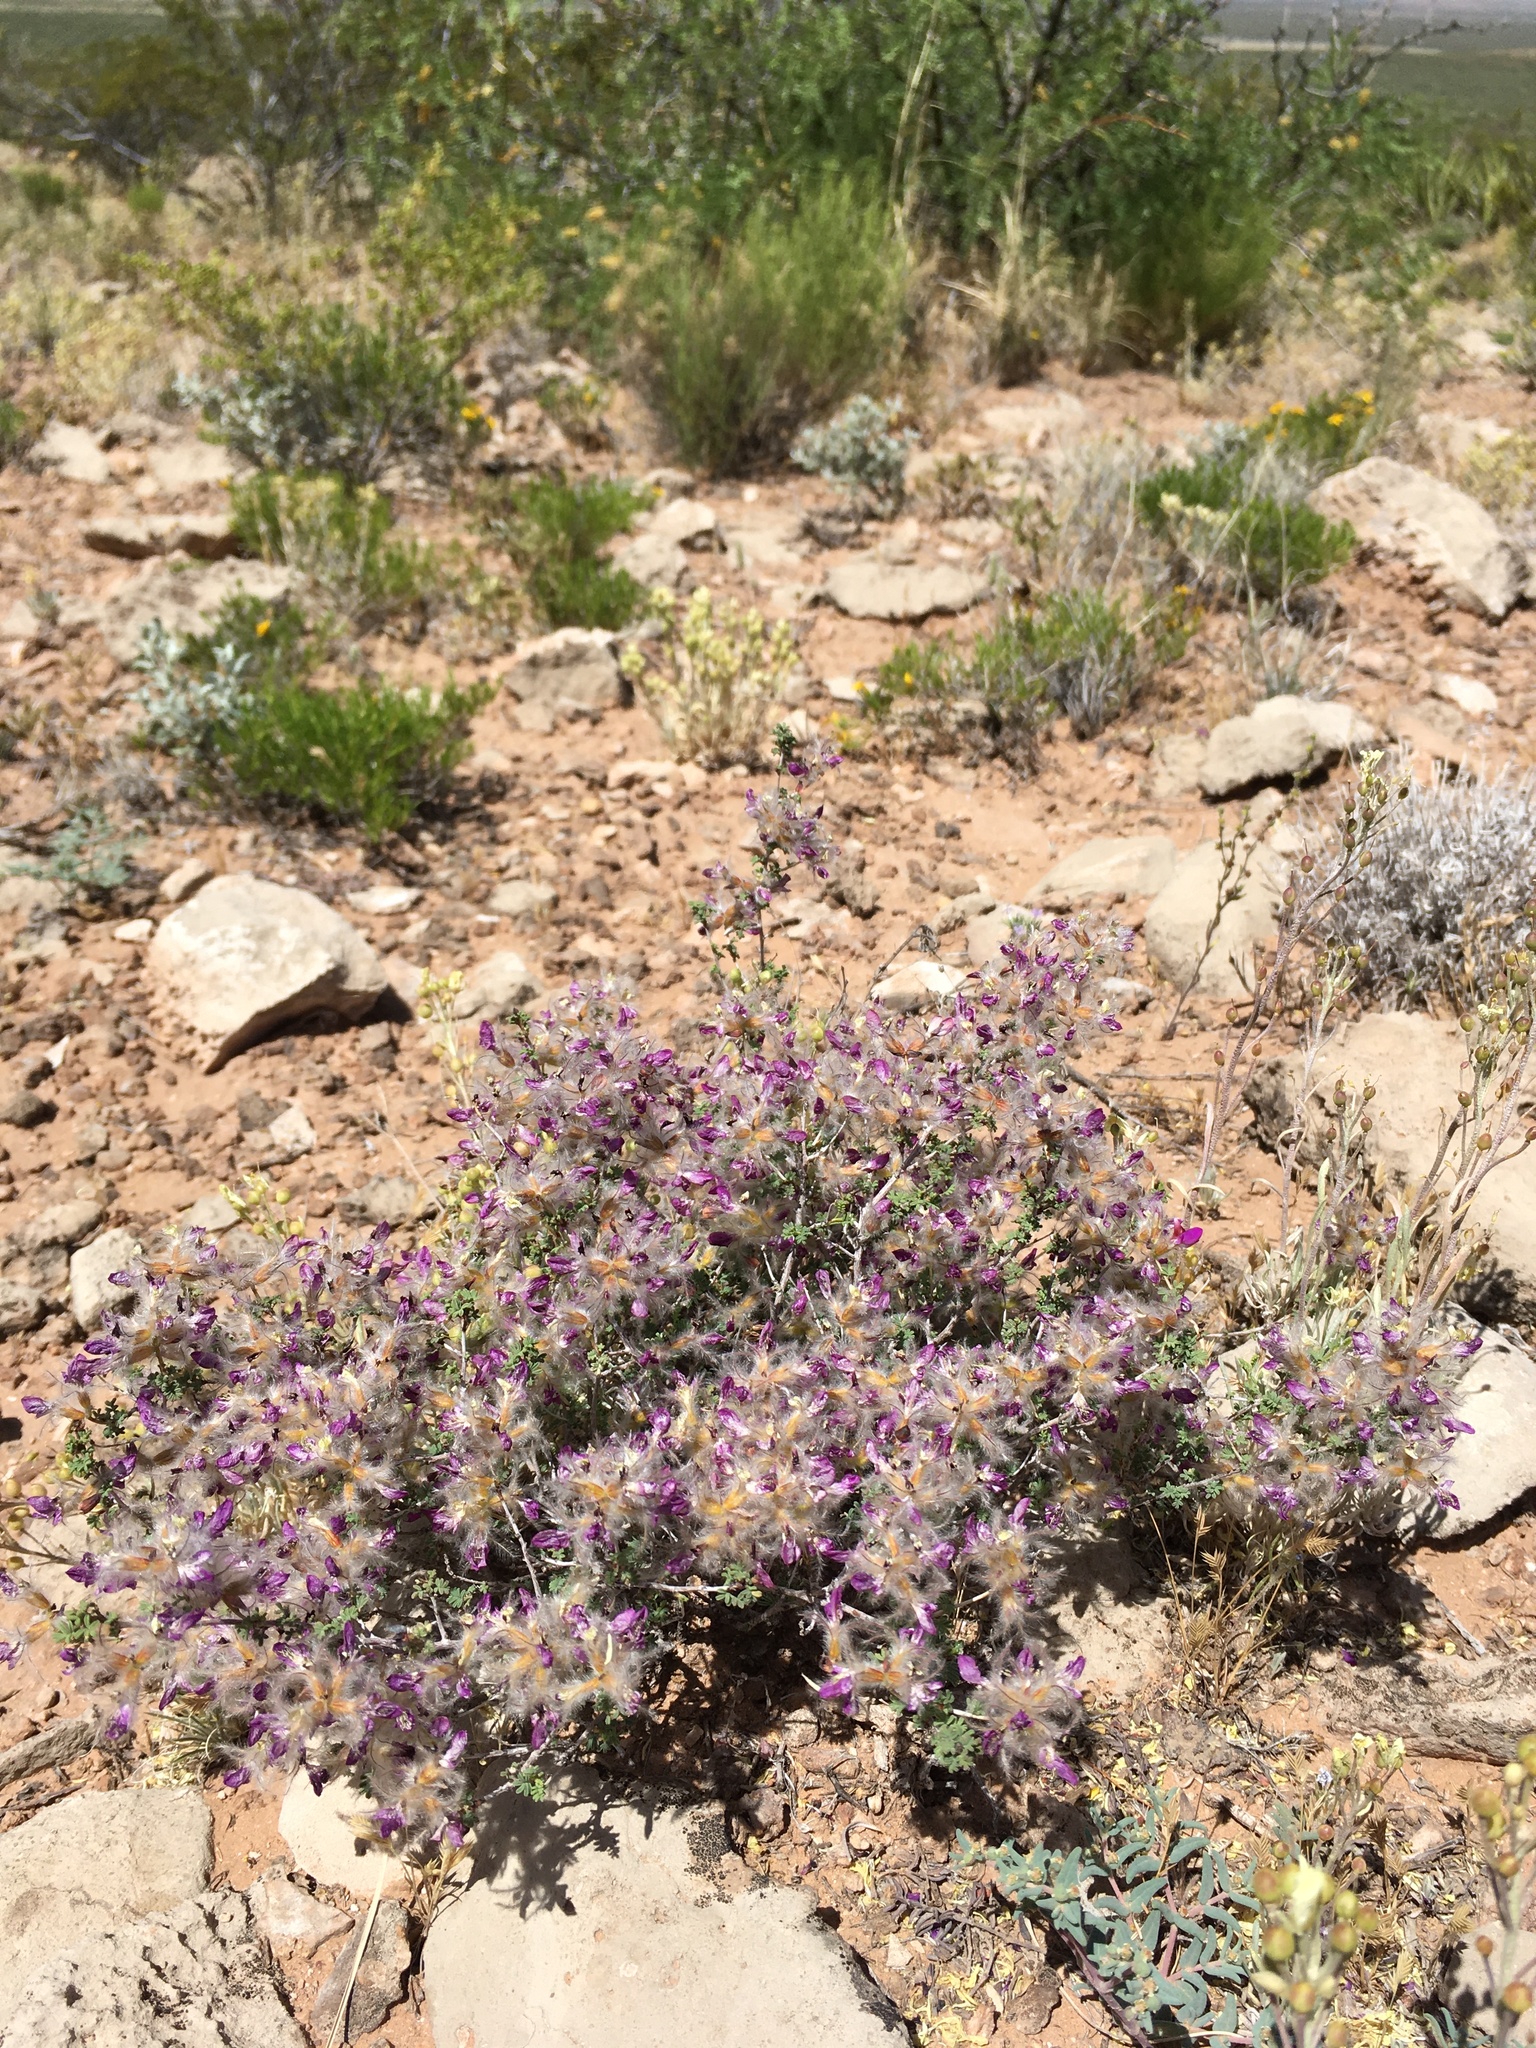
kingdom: Plantae
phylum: Tracheophyta
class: Magnoliopsida
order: Fabales
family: Fabaceae
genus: Dalea
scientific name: Dalea formosa
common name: Feather-plume dalea
